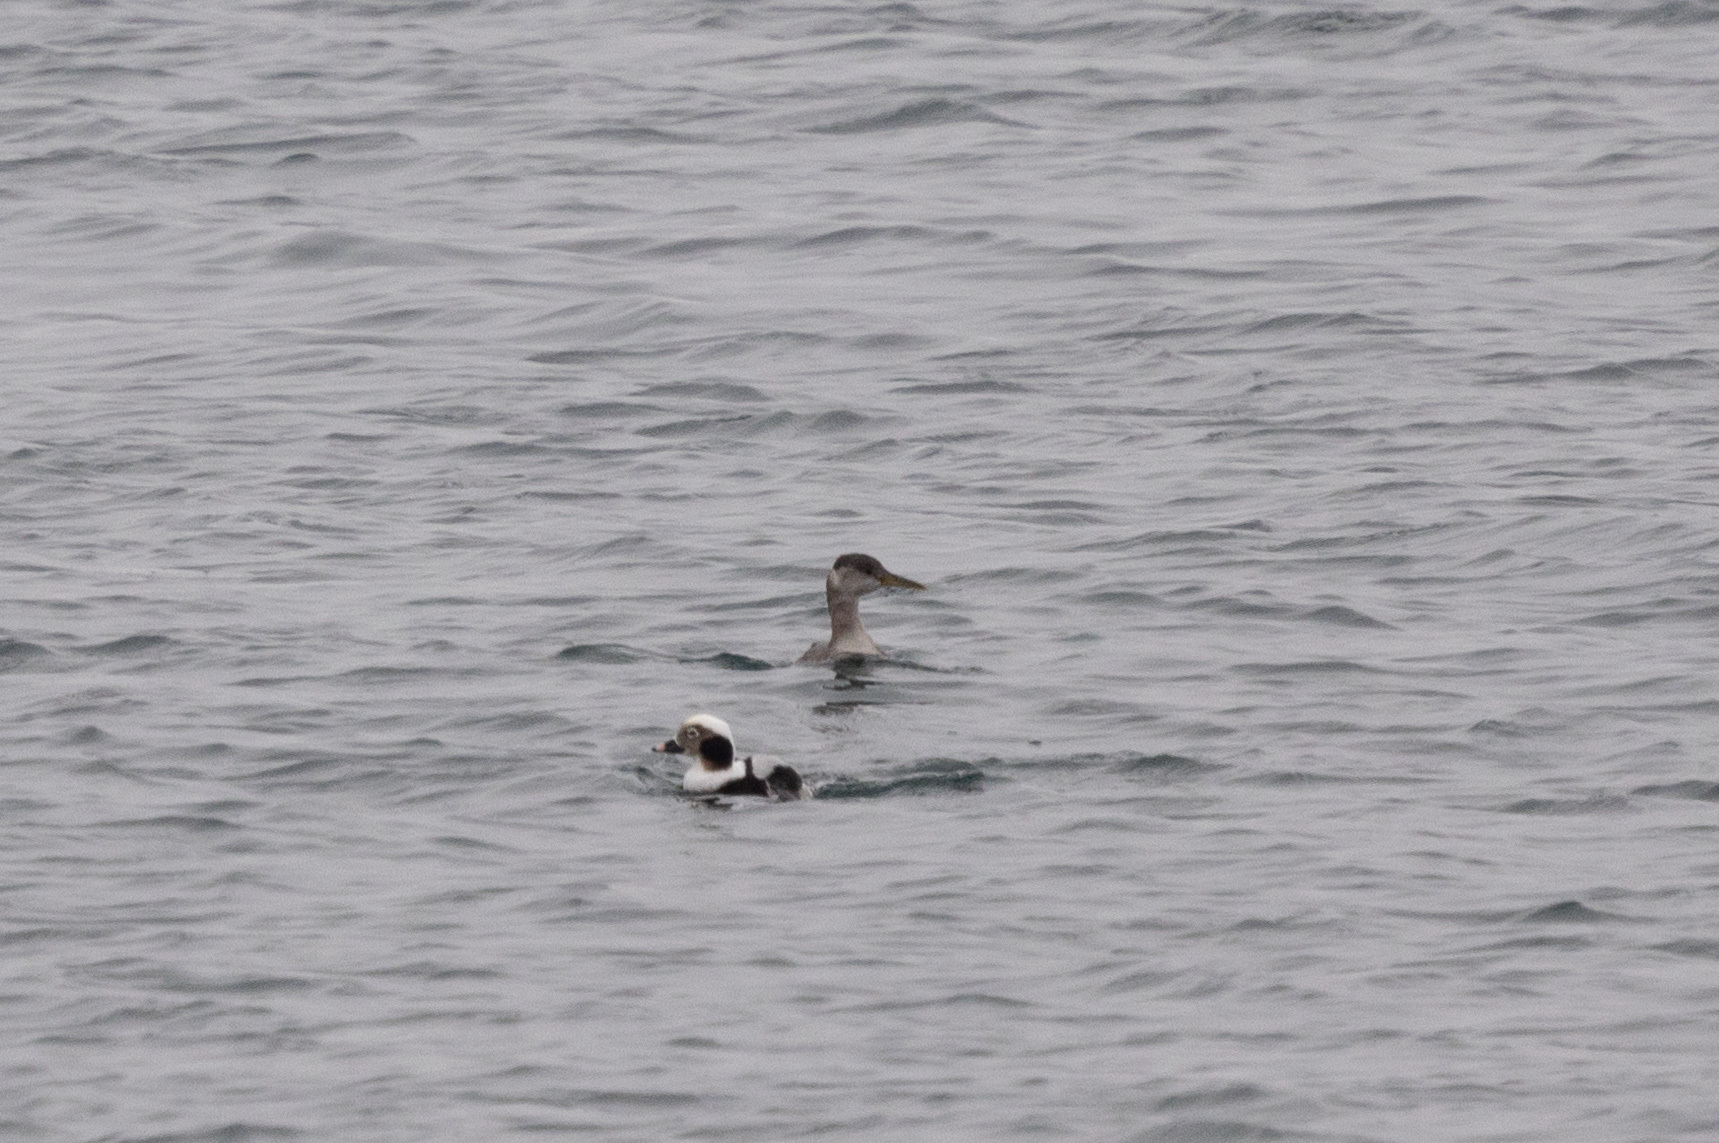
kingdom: Animalia
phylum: Chordata
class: Aves
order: Podicipediformes
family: Podicipedidae
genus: Podiceps
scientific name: Podiceps grisegena
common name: Red-necked grebe
